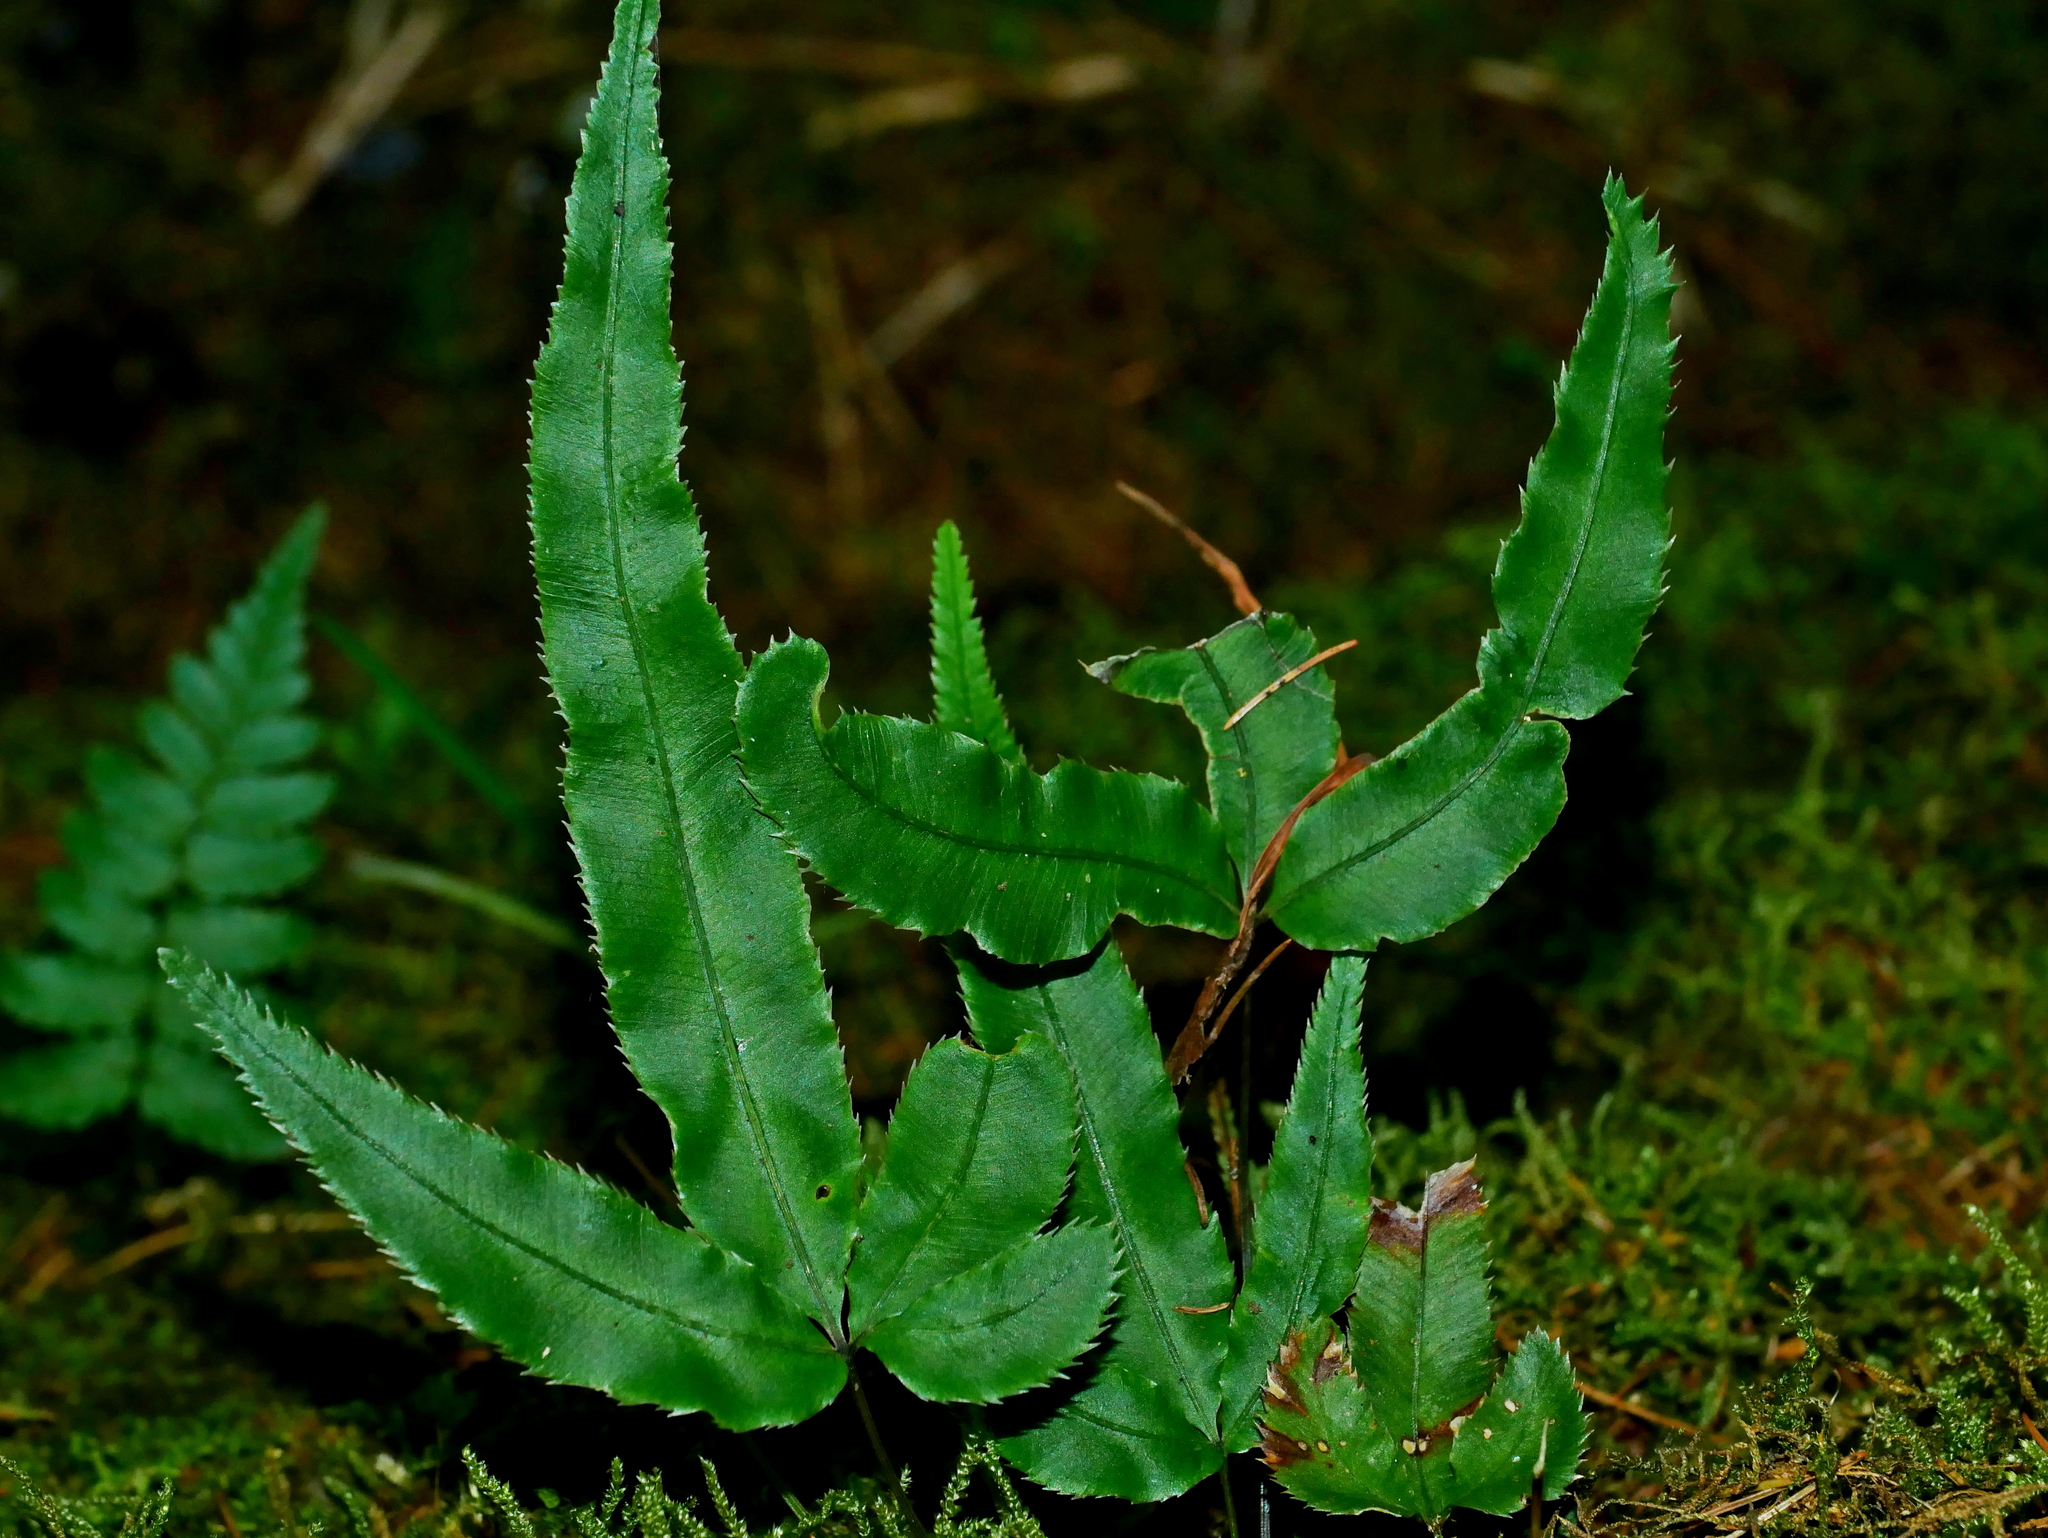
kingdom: Plantae
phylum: Tracheophyta
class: Polypodiopsida
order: Polypodiales
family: Pteridaceae
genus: Pteris
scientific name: Pteris cretica
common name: Ribbon fern
